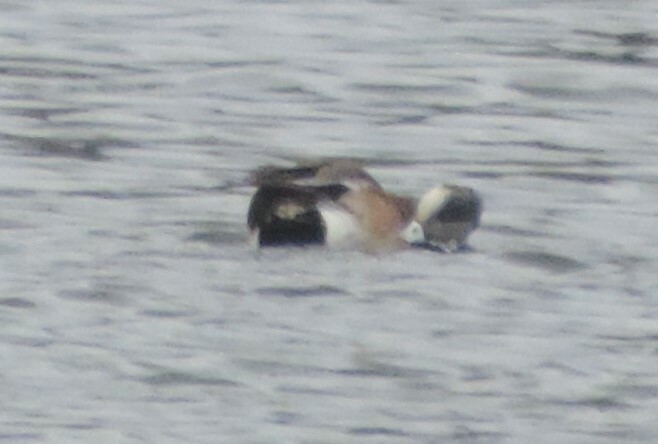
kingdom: Animalia
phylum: Chordata
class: Aves
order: Anseriformes
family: Anatidae
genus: Mareca
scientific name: Mareca americana
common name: American wigeon
